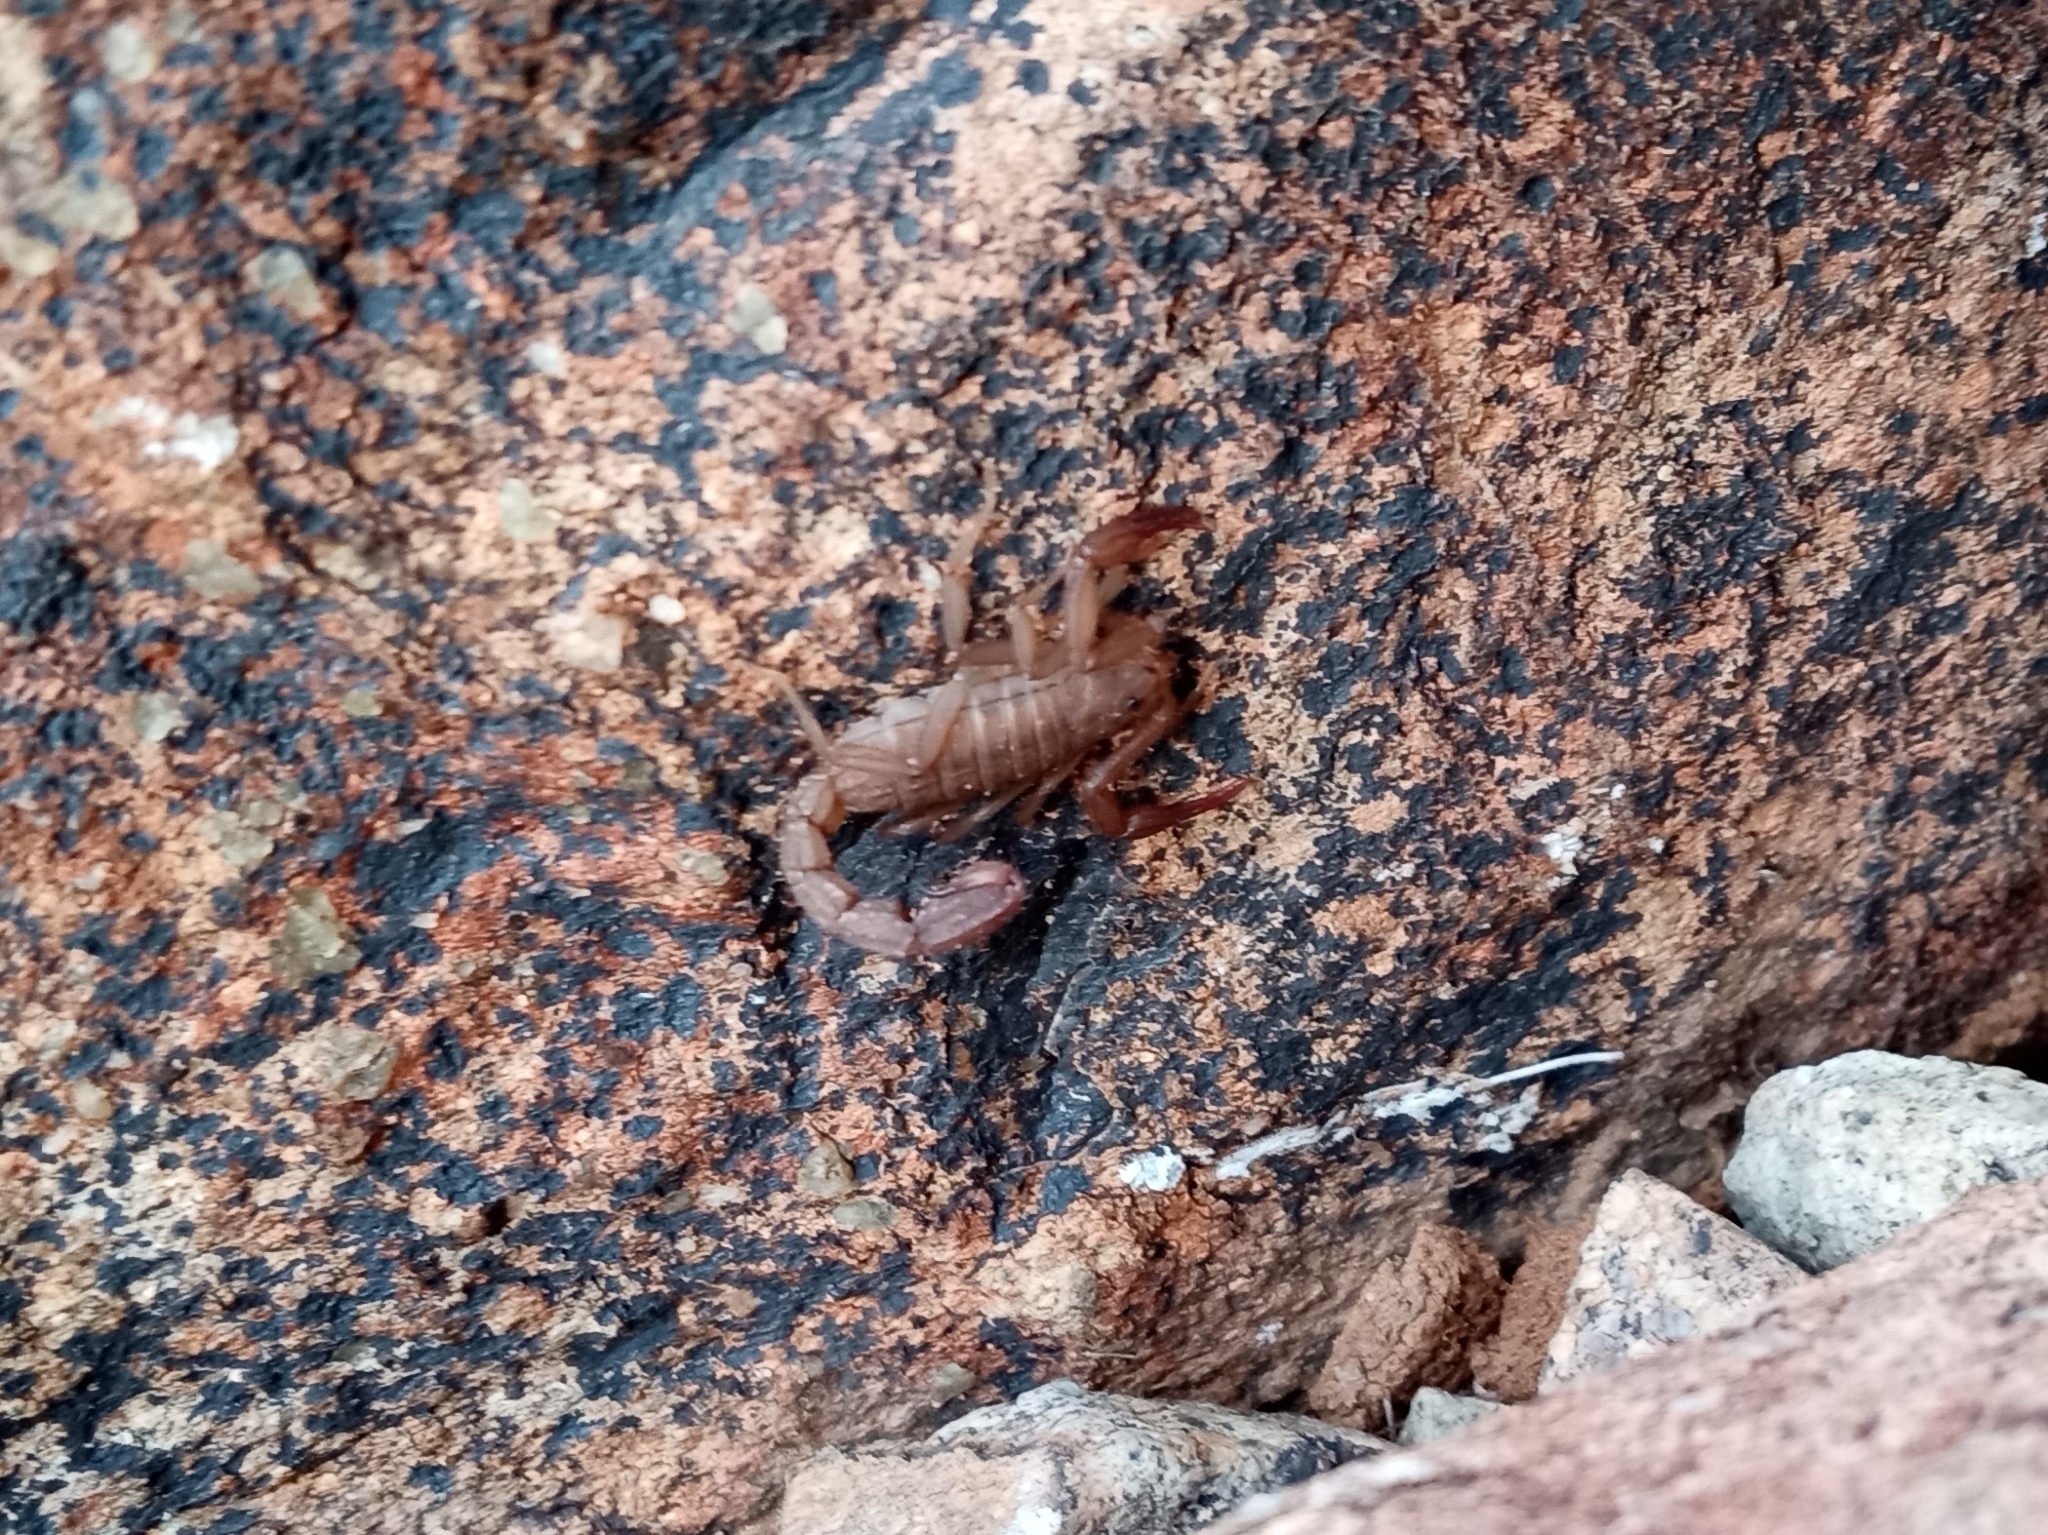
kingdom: Animalia
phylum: Arthropoda
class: Arachnida
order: Scorpiones
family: Vaejovidae
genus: Stahnkeus
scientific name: Stahnkeus allredi
